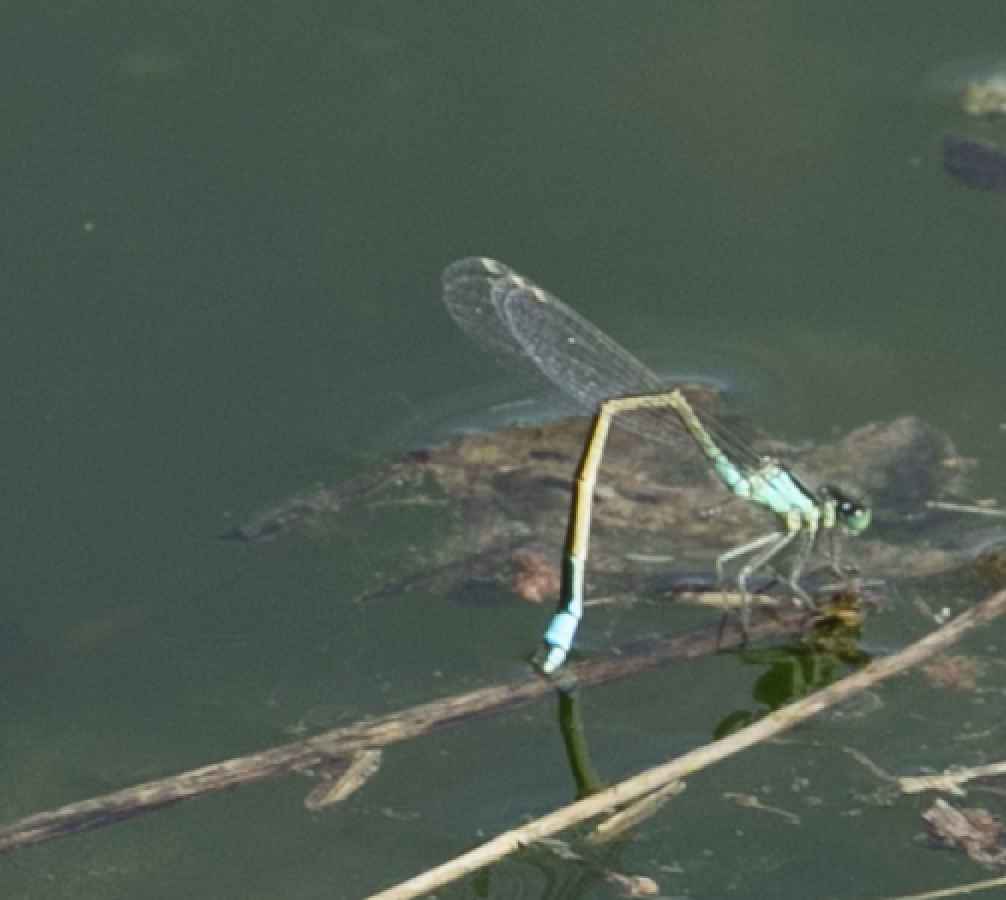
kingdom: Animalia
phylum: Arthropoda
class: Insecta
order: Odonata
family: Coenagrionidae
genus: Ischnura
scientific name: Ischnura elegans
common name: Blue-tailed damselfly
